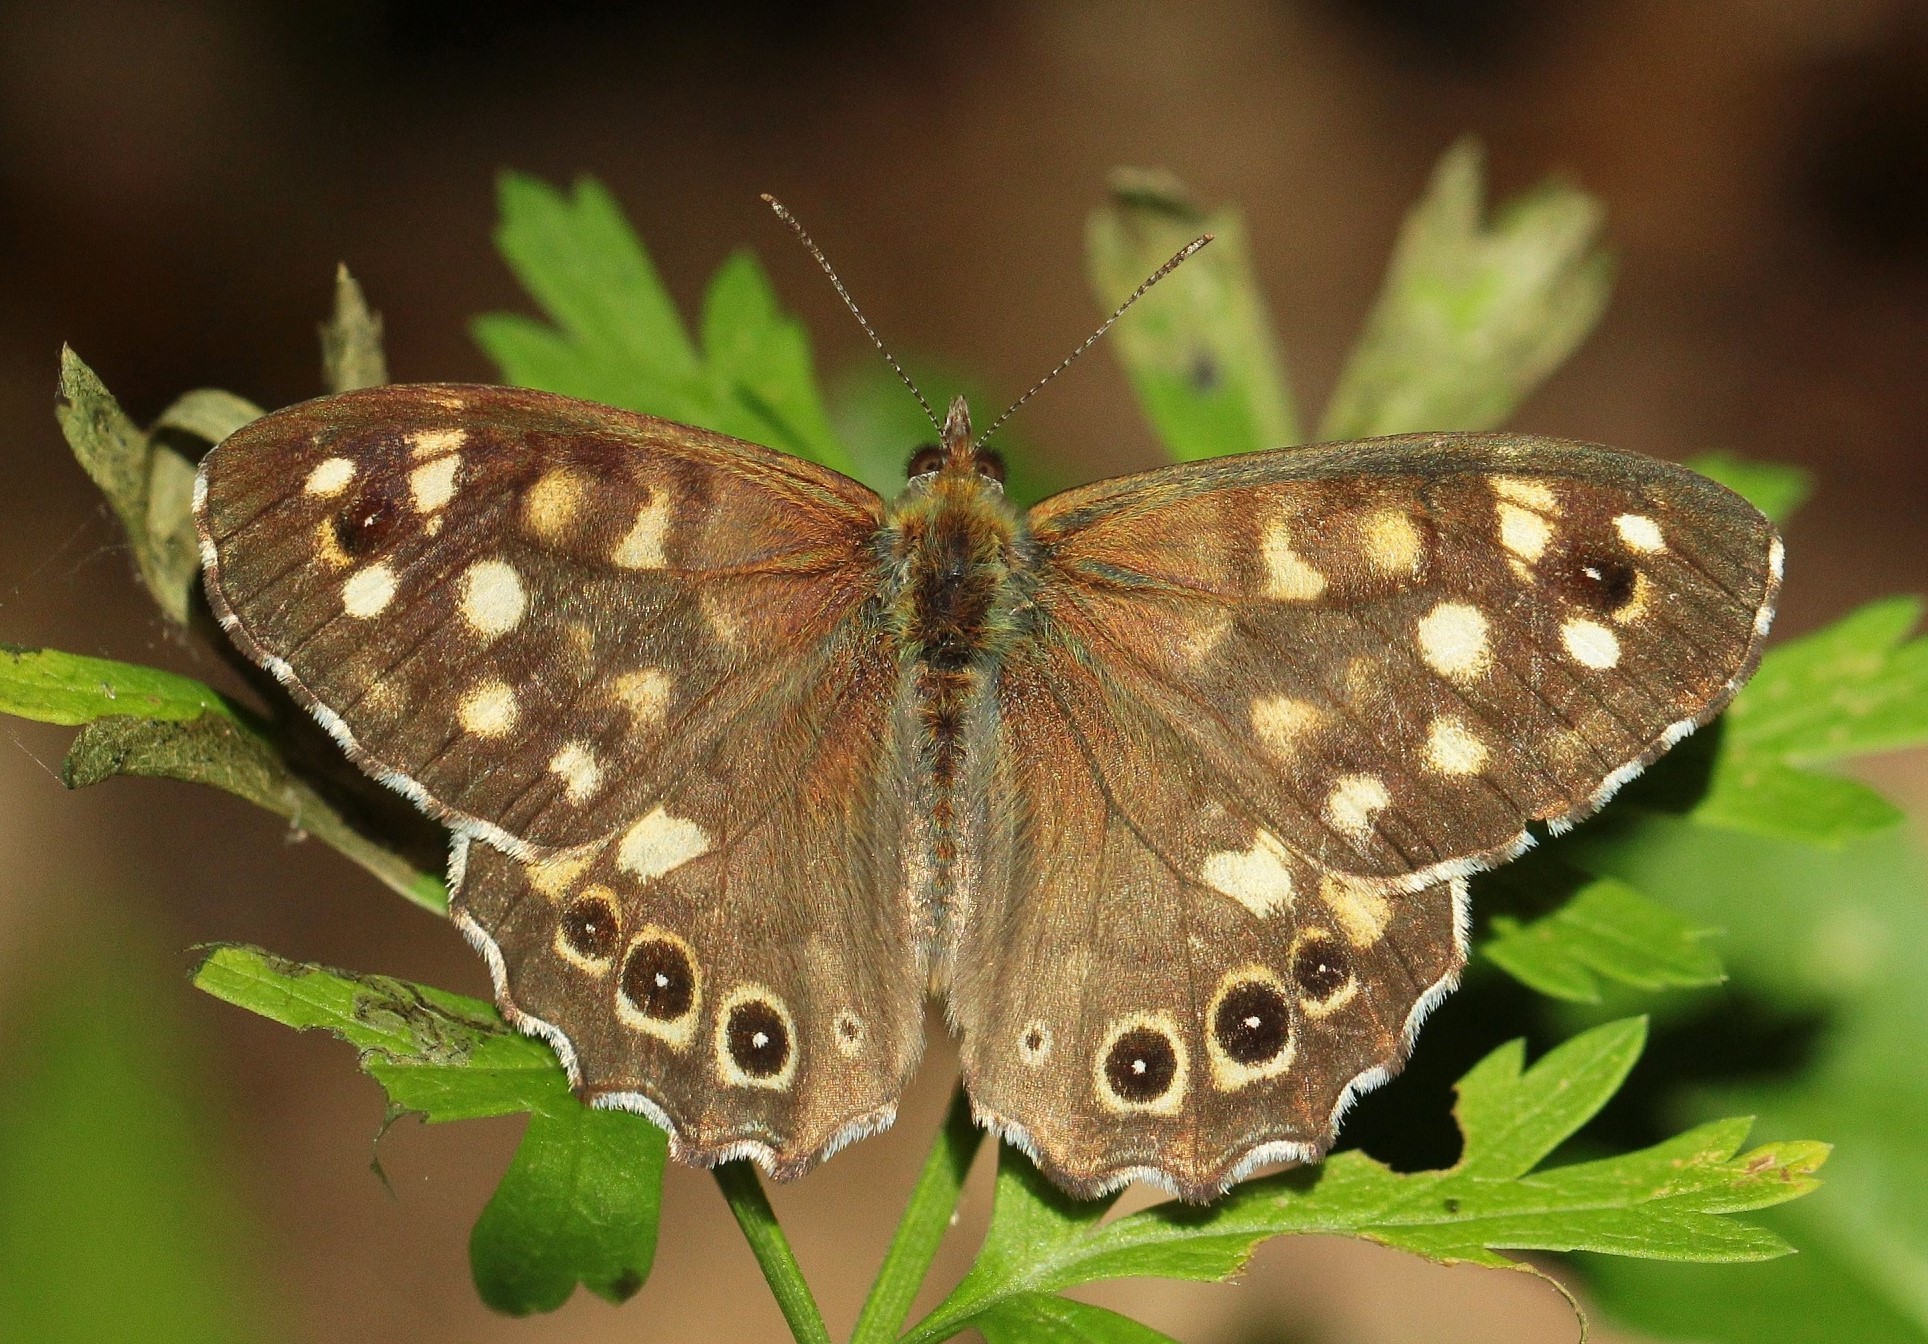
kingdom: Animalia
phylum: Arthropoda
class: Insecta
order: Lepidoptera
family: Nymphalidae
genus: Pararge
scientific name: Pararge aegeria
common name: Speckled wood
